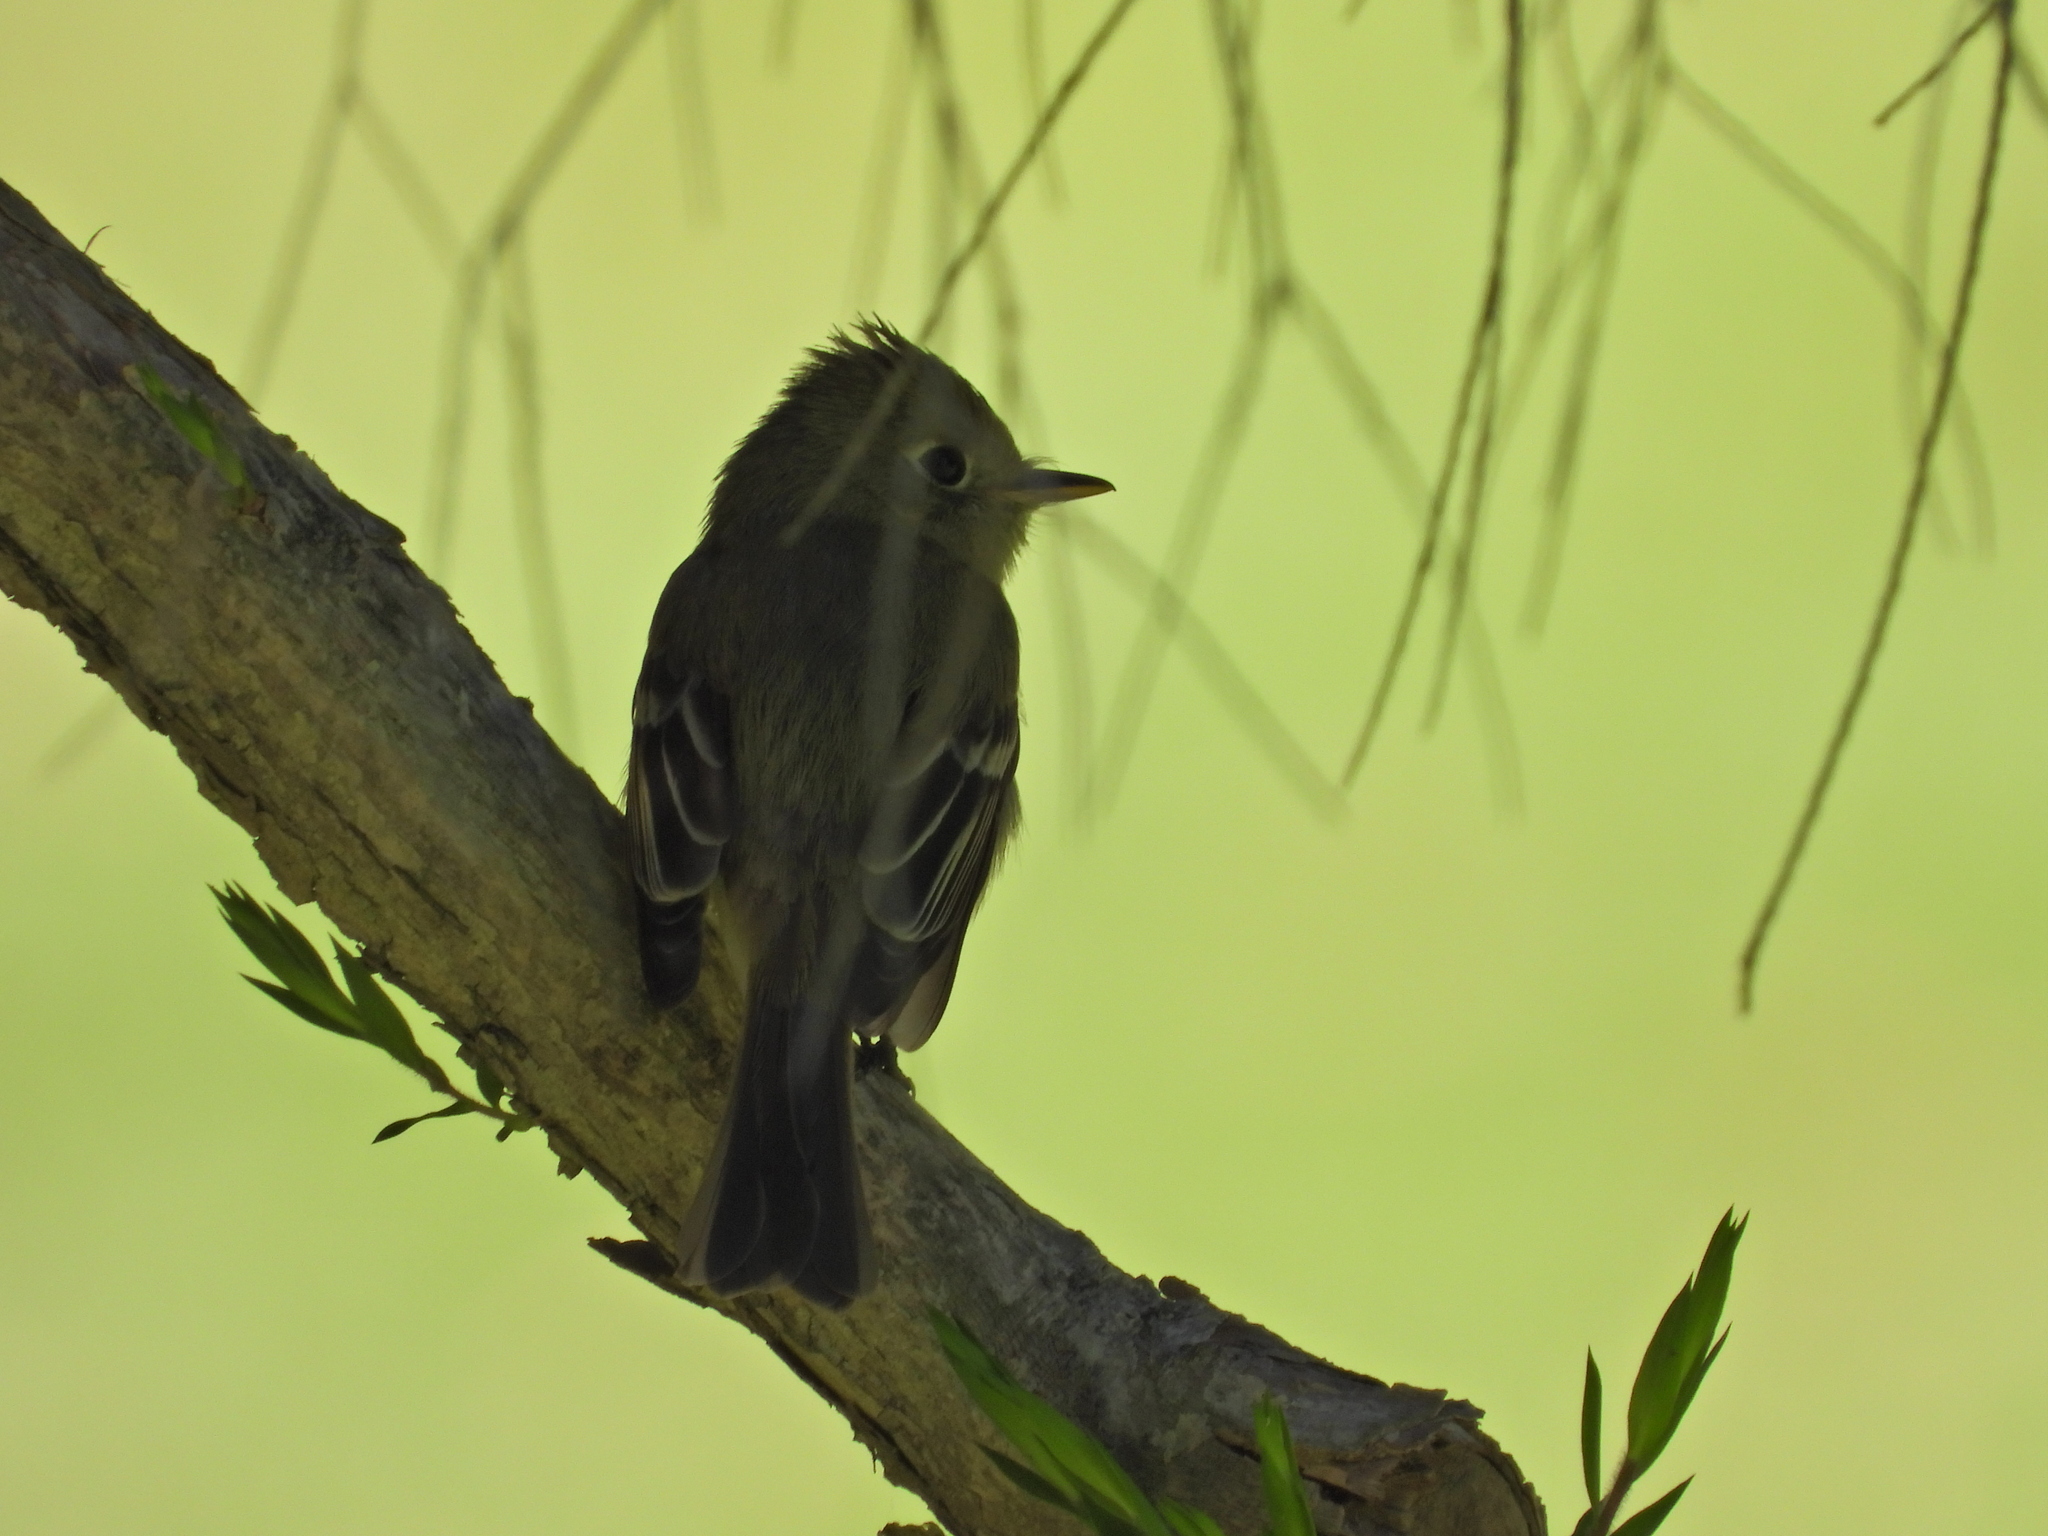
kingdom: Plantae
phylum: Tracheophyta
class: Magnoliopsida
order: Asterales
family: Asteraceae
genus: Encelia
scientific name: Encelia farinosa
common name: Brittlebush
